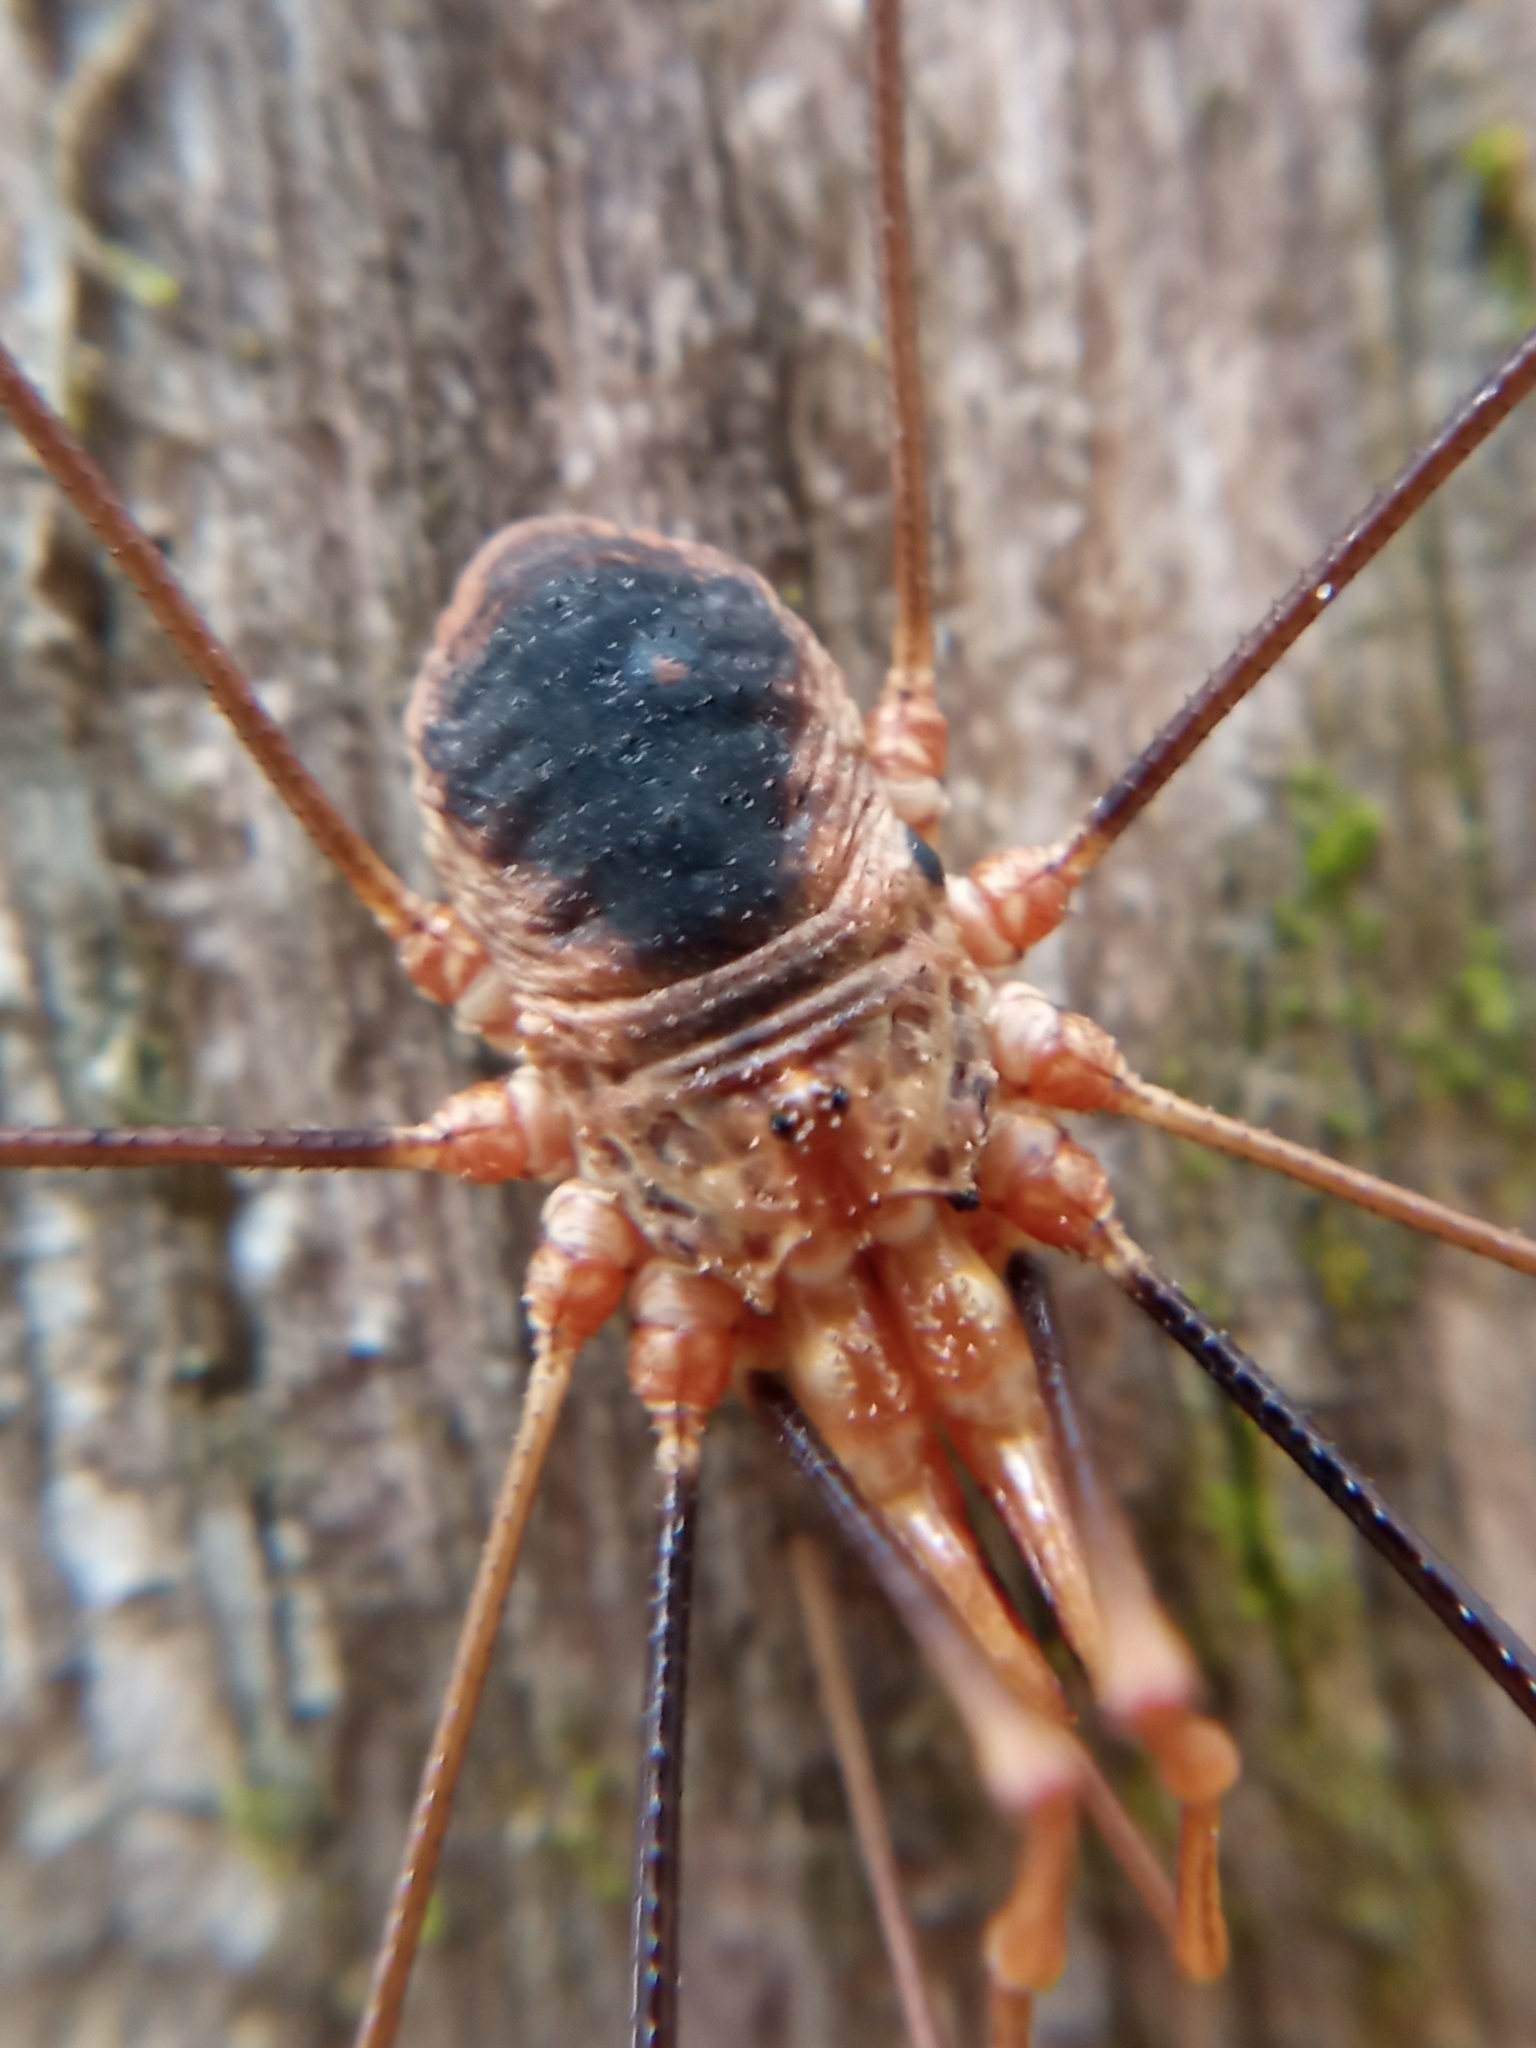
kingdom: Animalia
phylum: Arthropoda
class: Arachnida
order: Opiliones
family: Phalangiidae
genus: Phalangium
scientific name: Phalangium opilio
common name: Daddy longleg
